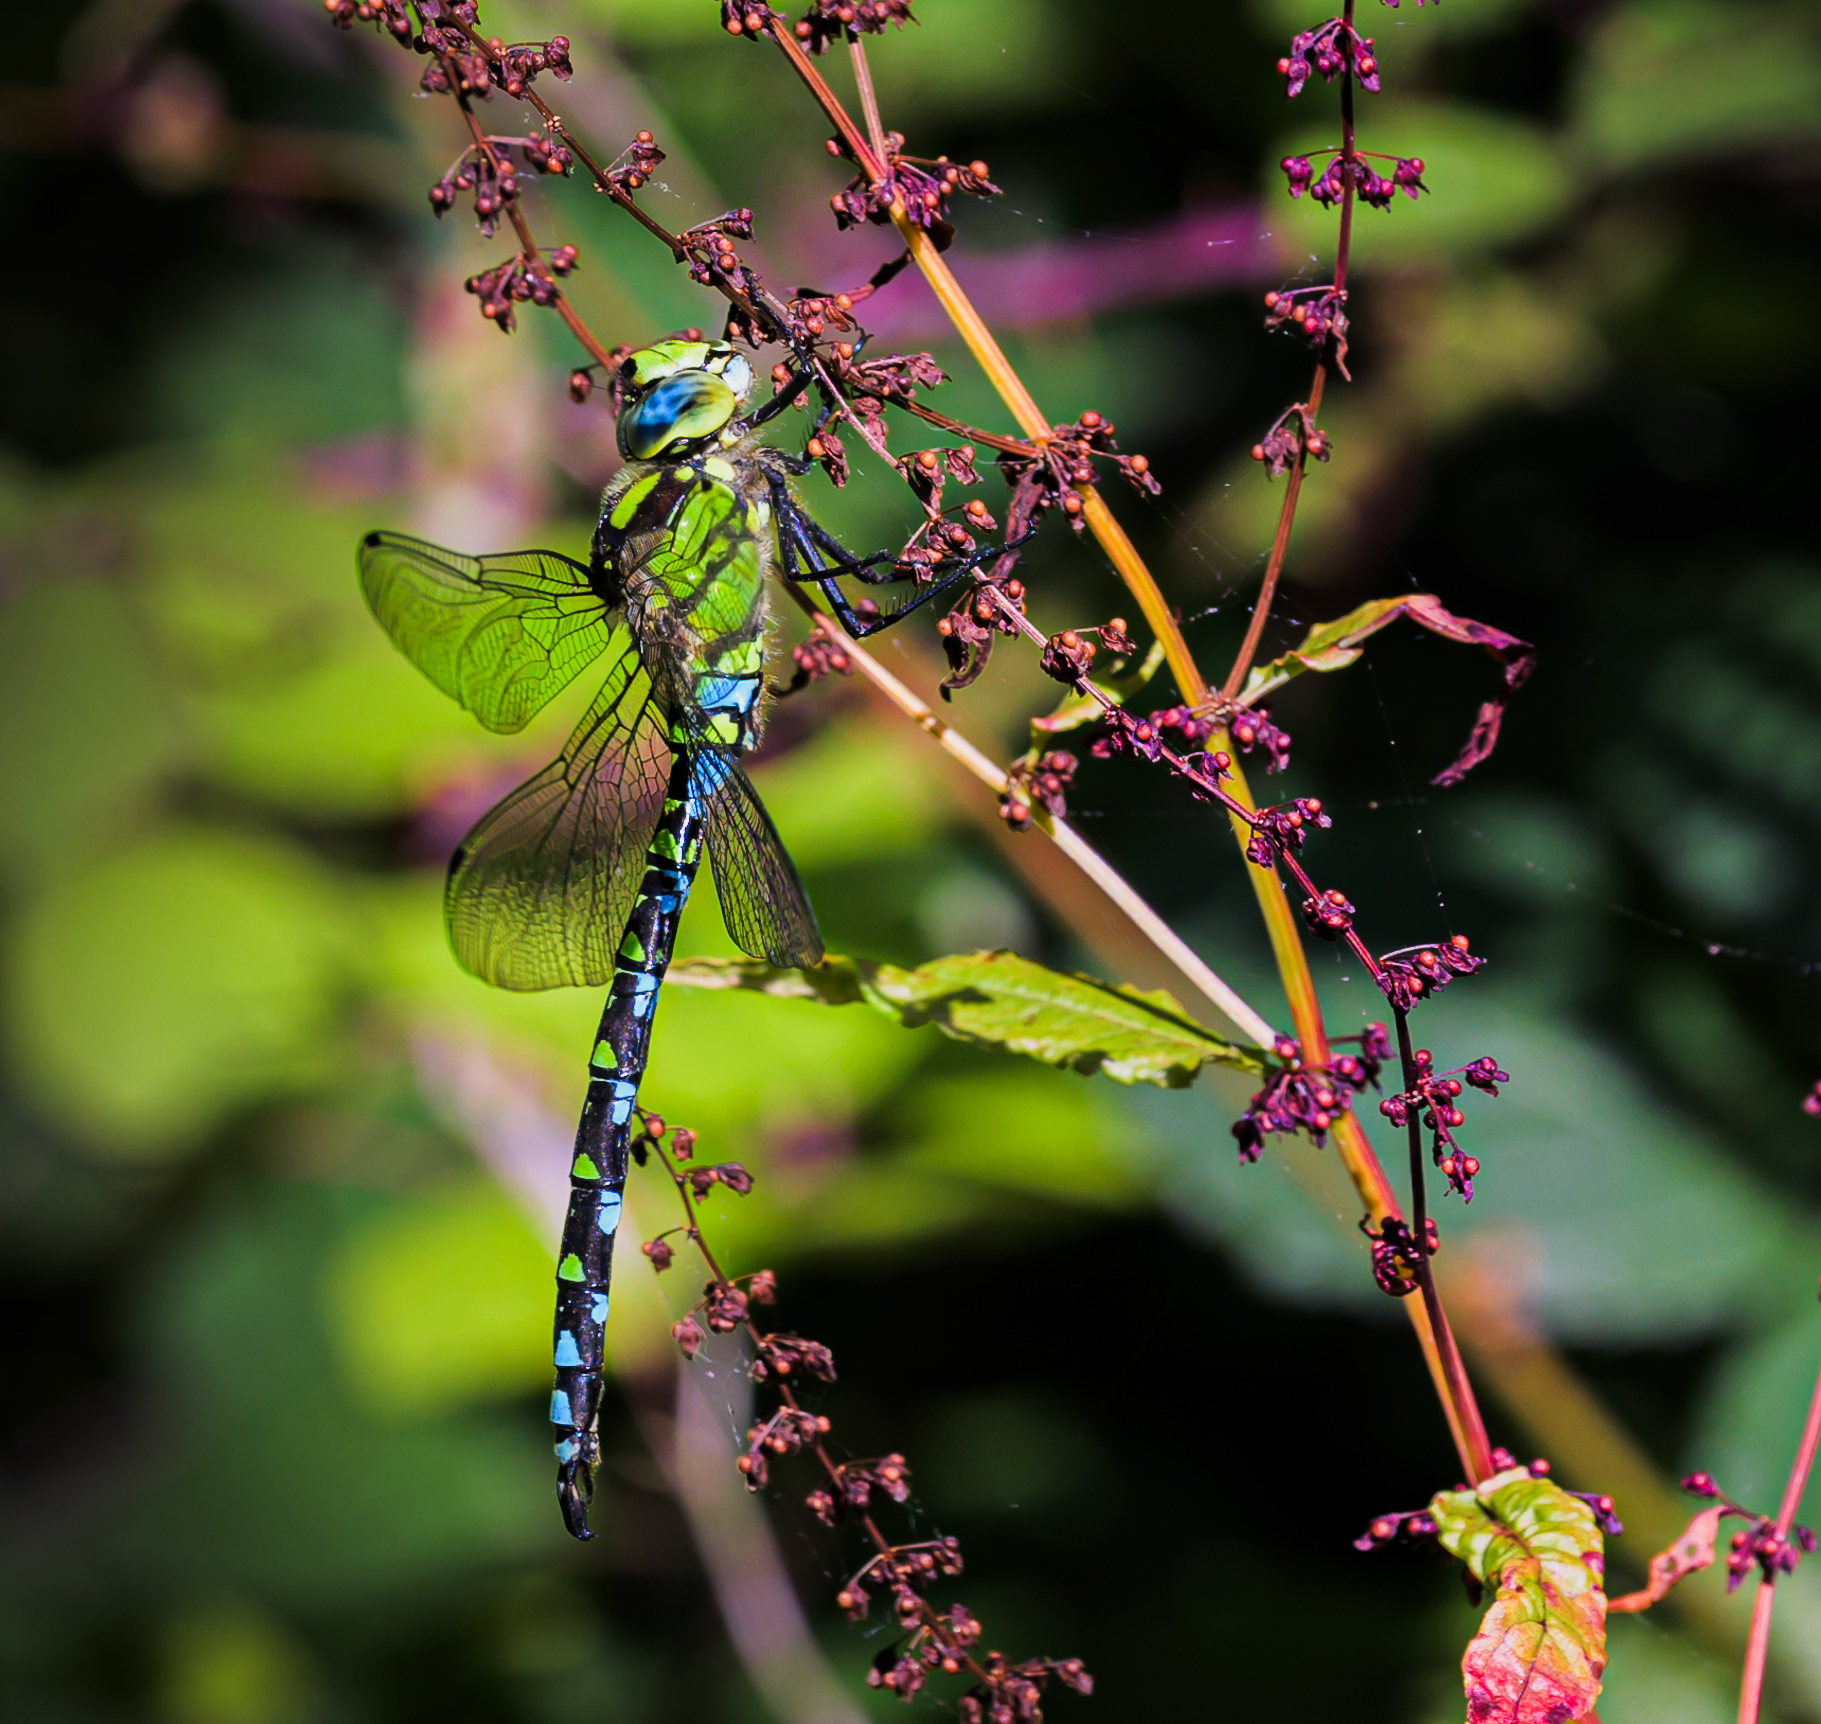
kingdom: Animalia
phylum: Arthropoda
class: Insecta
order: Odonata
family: Aeshnidae
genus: Aeshna
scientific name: Aeshna cyanea
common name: Southern hawker
